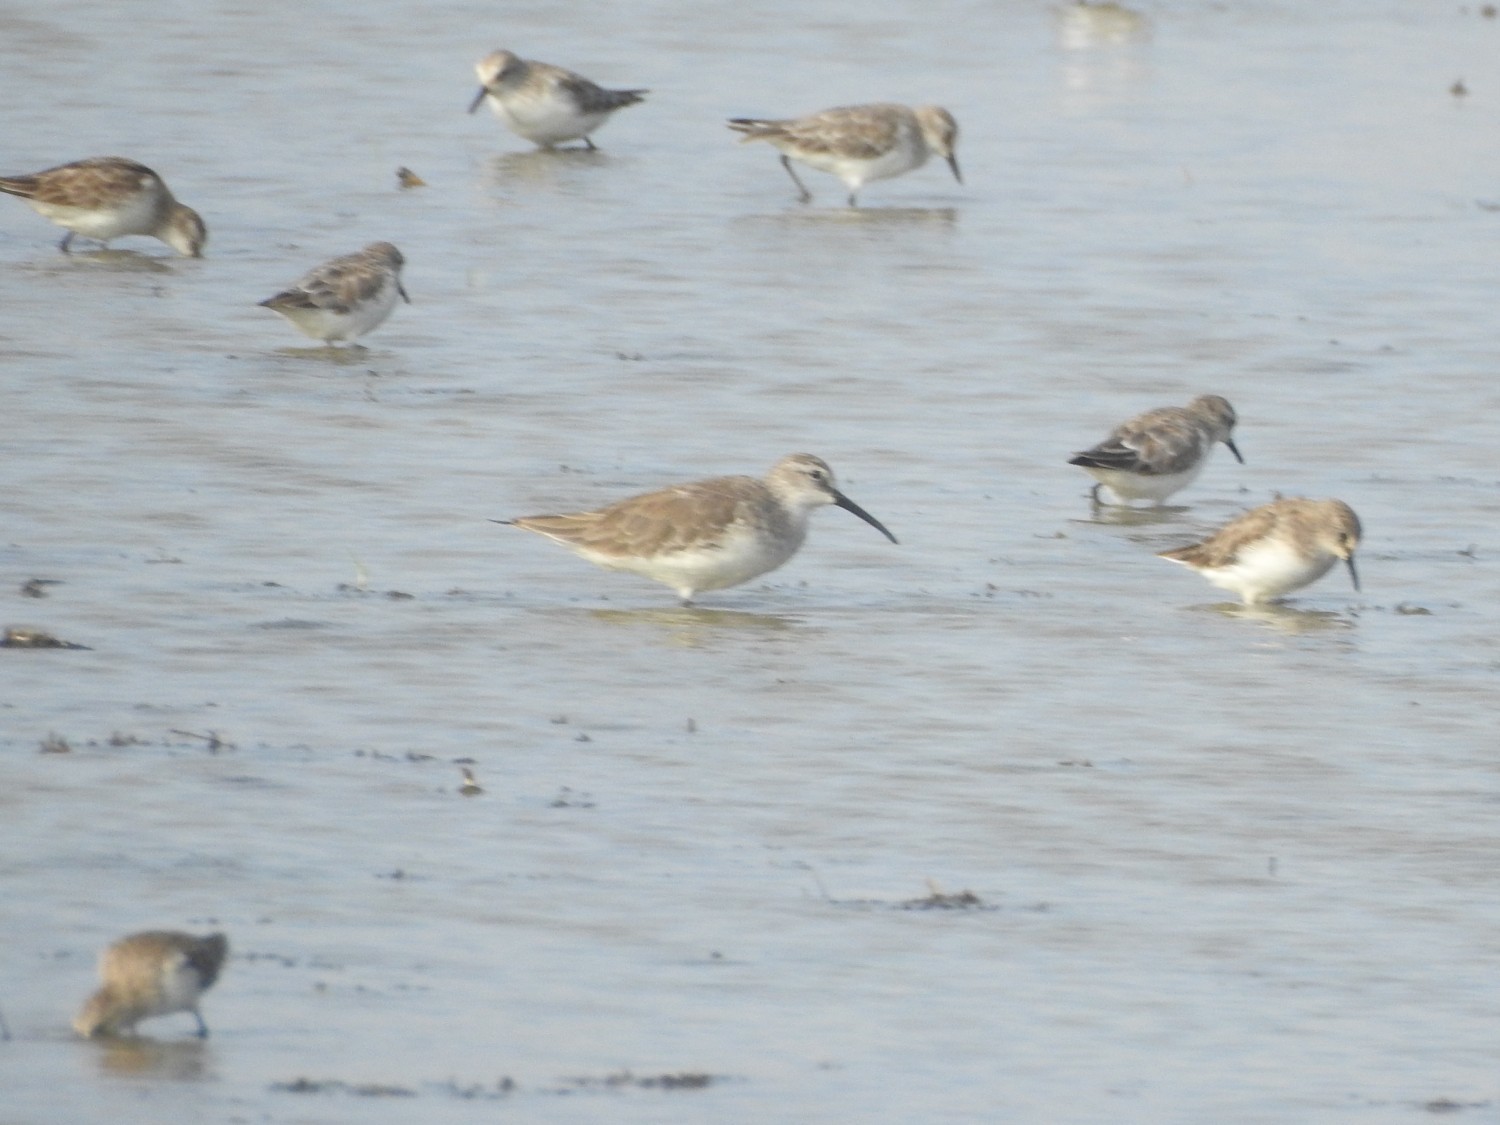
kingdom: Animalia
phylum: Chordata
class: Aves
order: Charadriiformes
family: Scolopacidae
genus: Calidris
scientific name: Calidris ferruginea
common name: Curlew sandpiper
